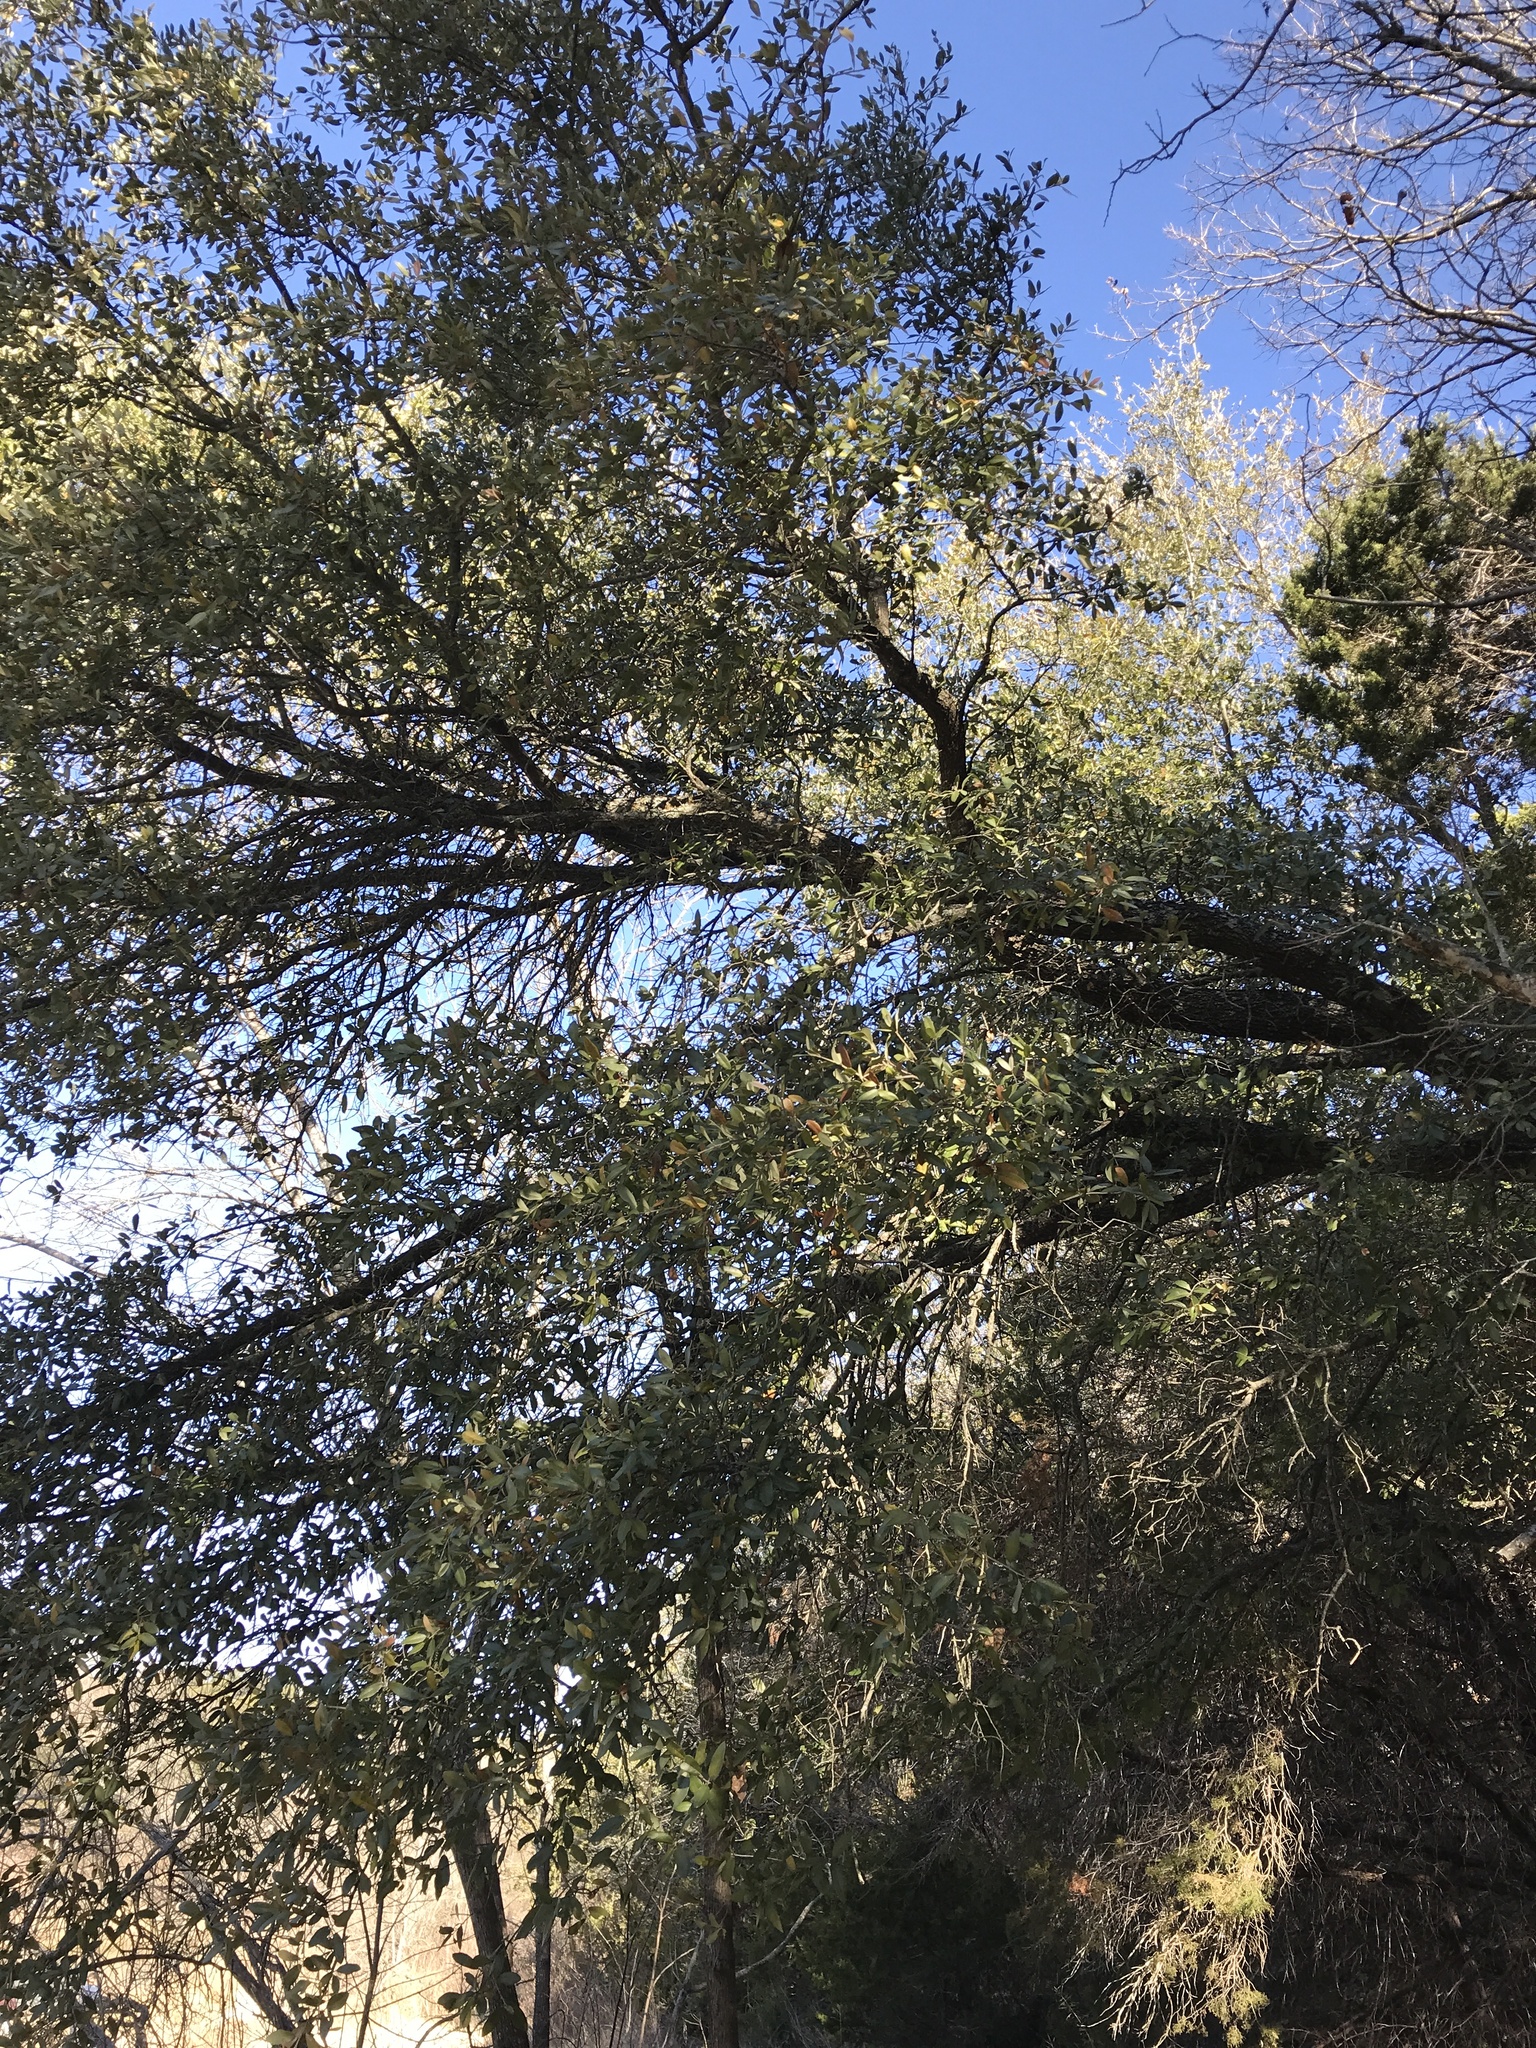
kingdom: Plantae
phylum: Tracheophyta
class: Magnoliopsida
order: Fagales
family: Fagaceae
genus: Quercus
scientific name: Quercus fusiformis
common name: Texas live oak
